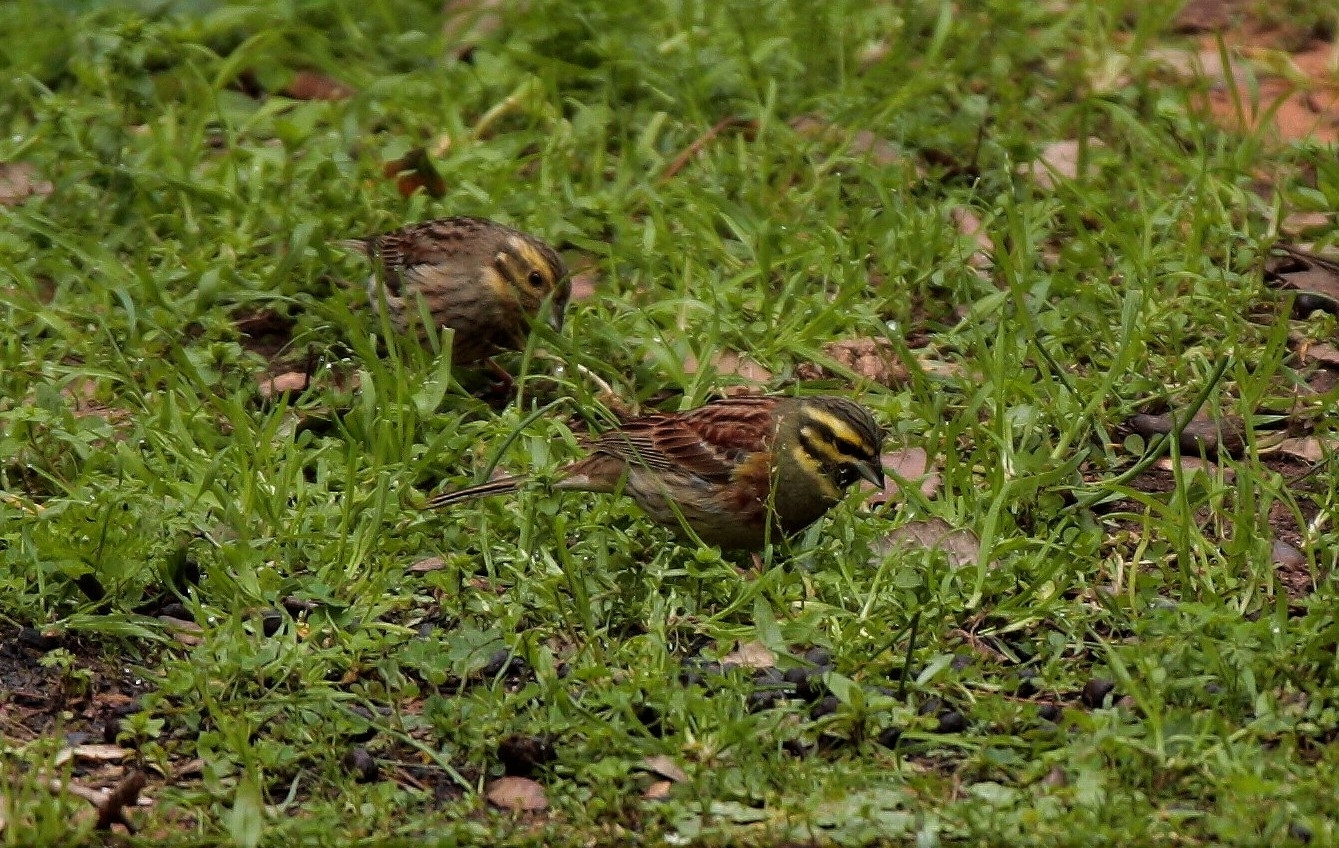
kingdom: Animalia
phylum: Chordata
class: Aves
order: Passeriformes
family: Emberizidae
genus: Emberiza
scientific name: Emberiza cirlus
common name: Cirl bunting
